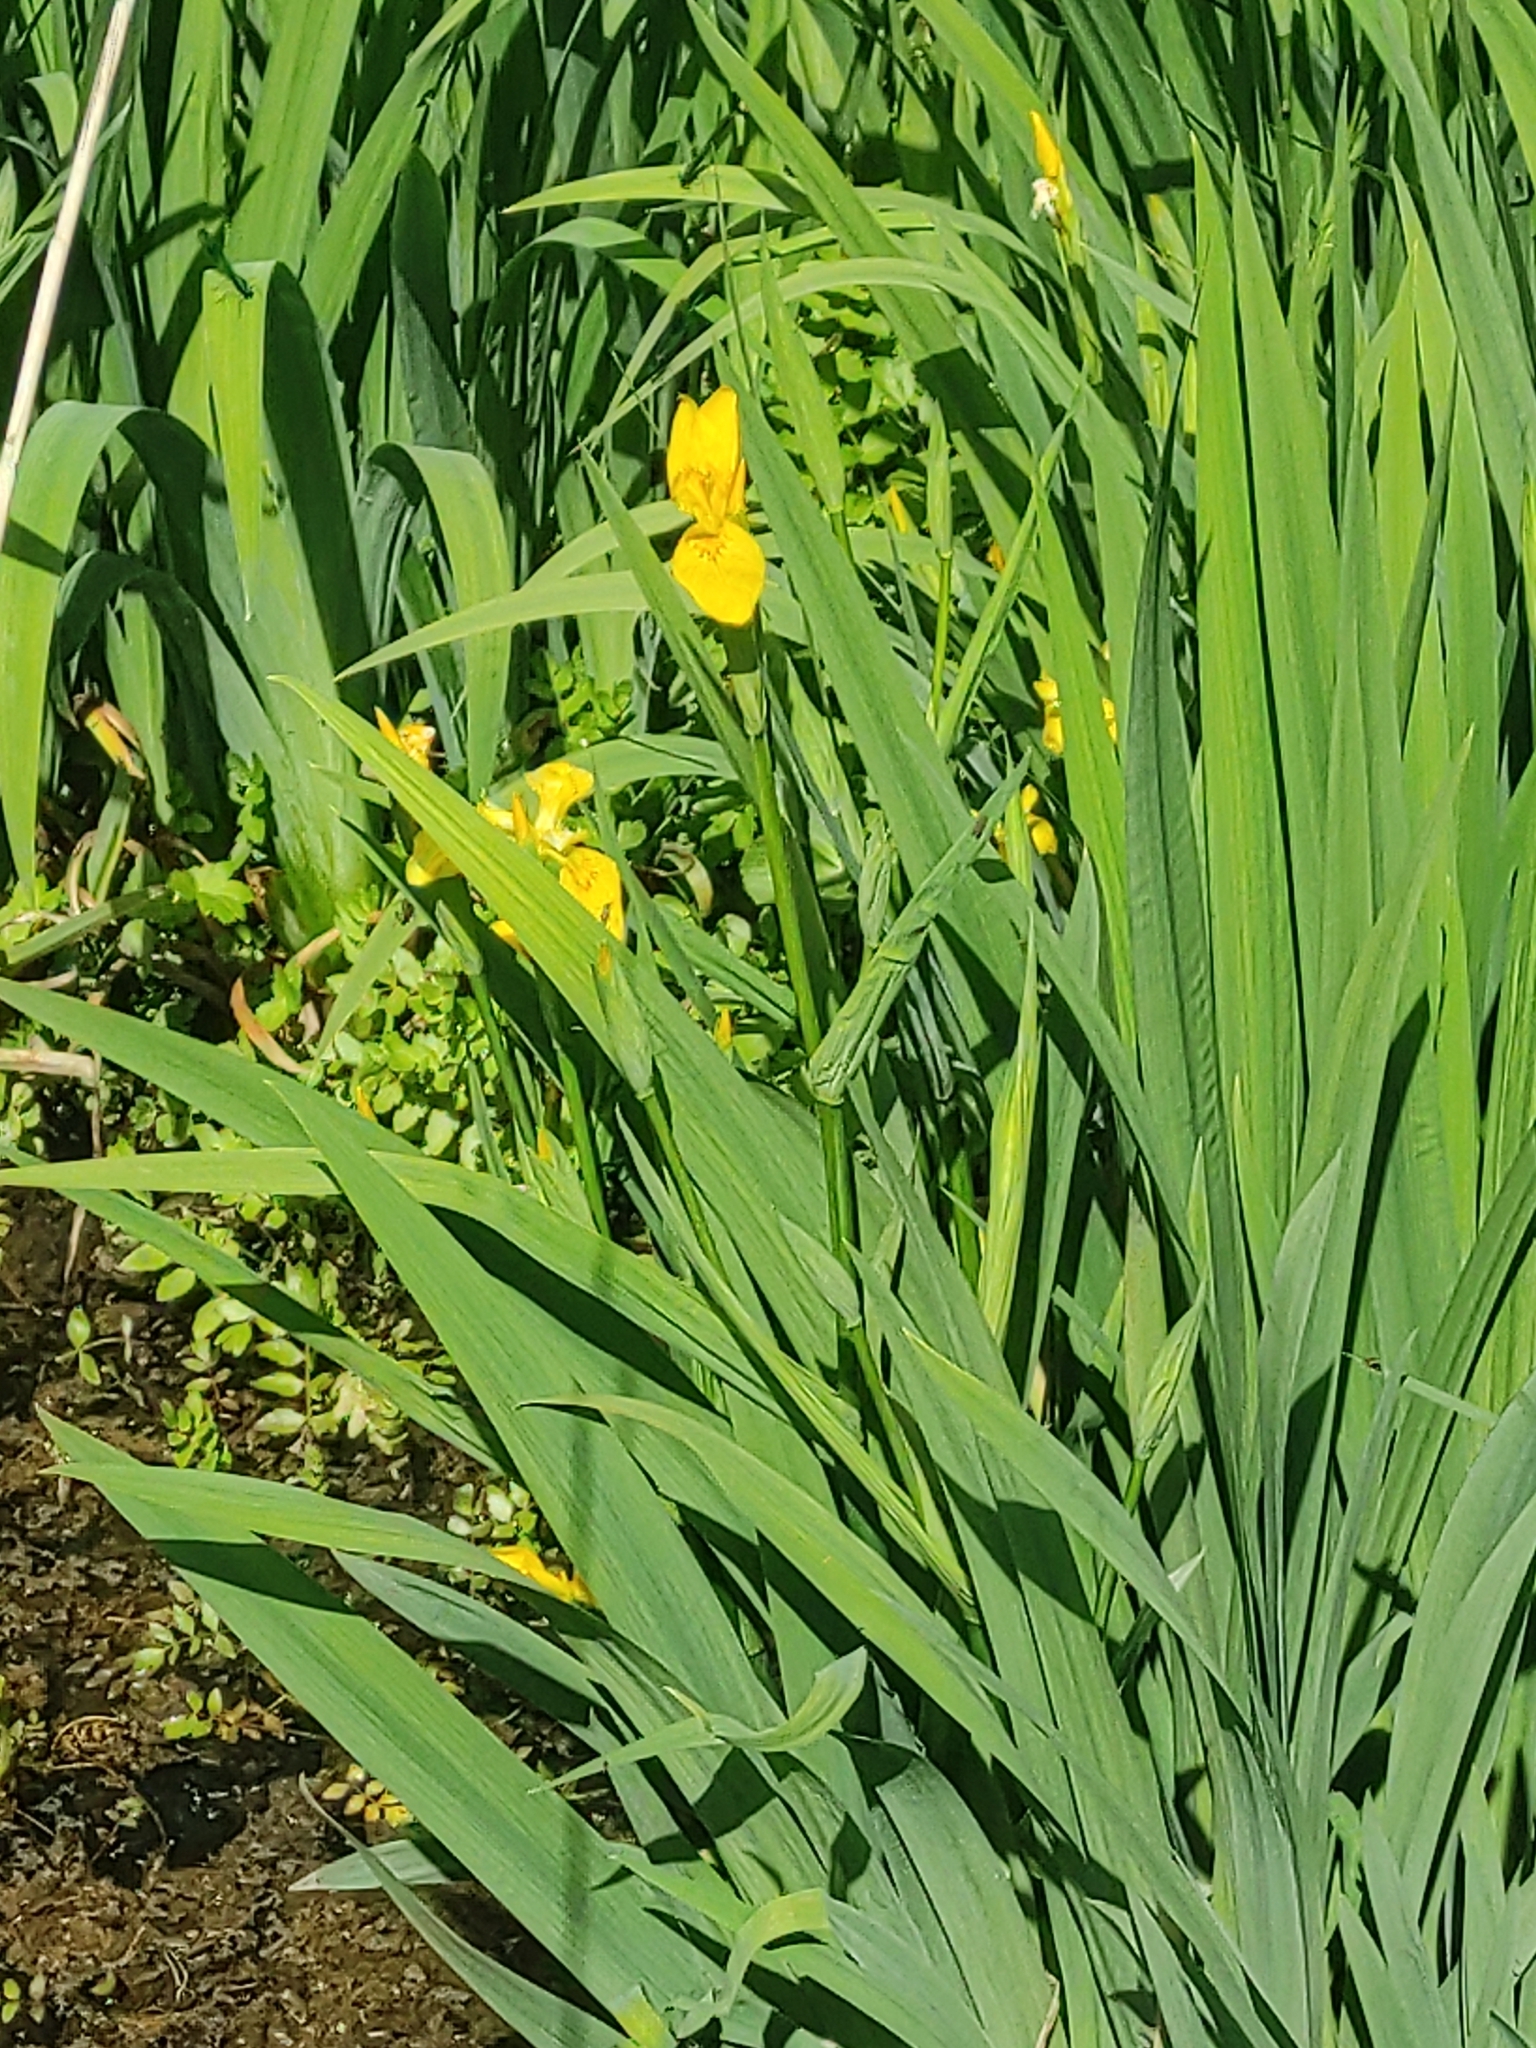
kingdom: Plantae
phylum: Tracheophyta
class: Liliopsida
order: Asparagales
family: Iridaceae
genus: Iris
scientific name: Iris pseudacorus
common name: Yellow flag
